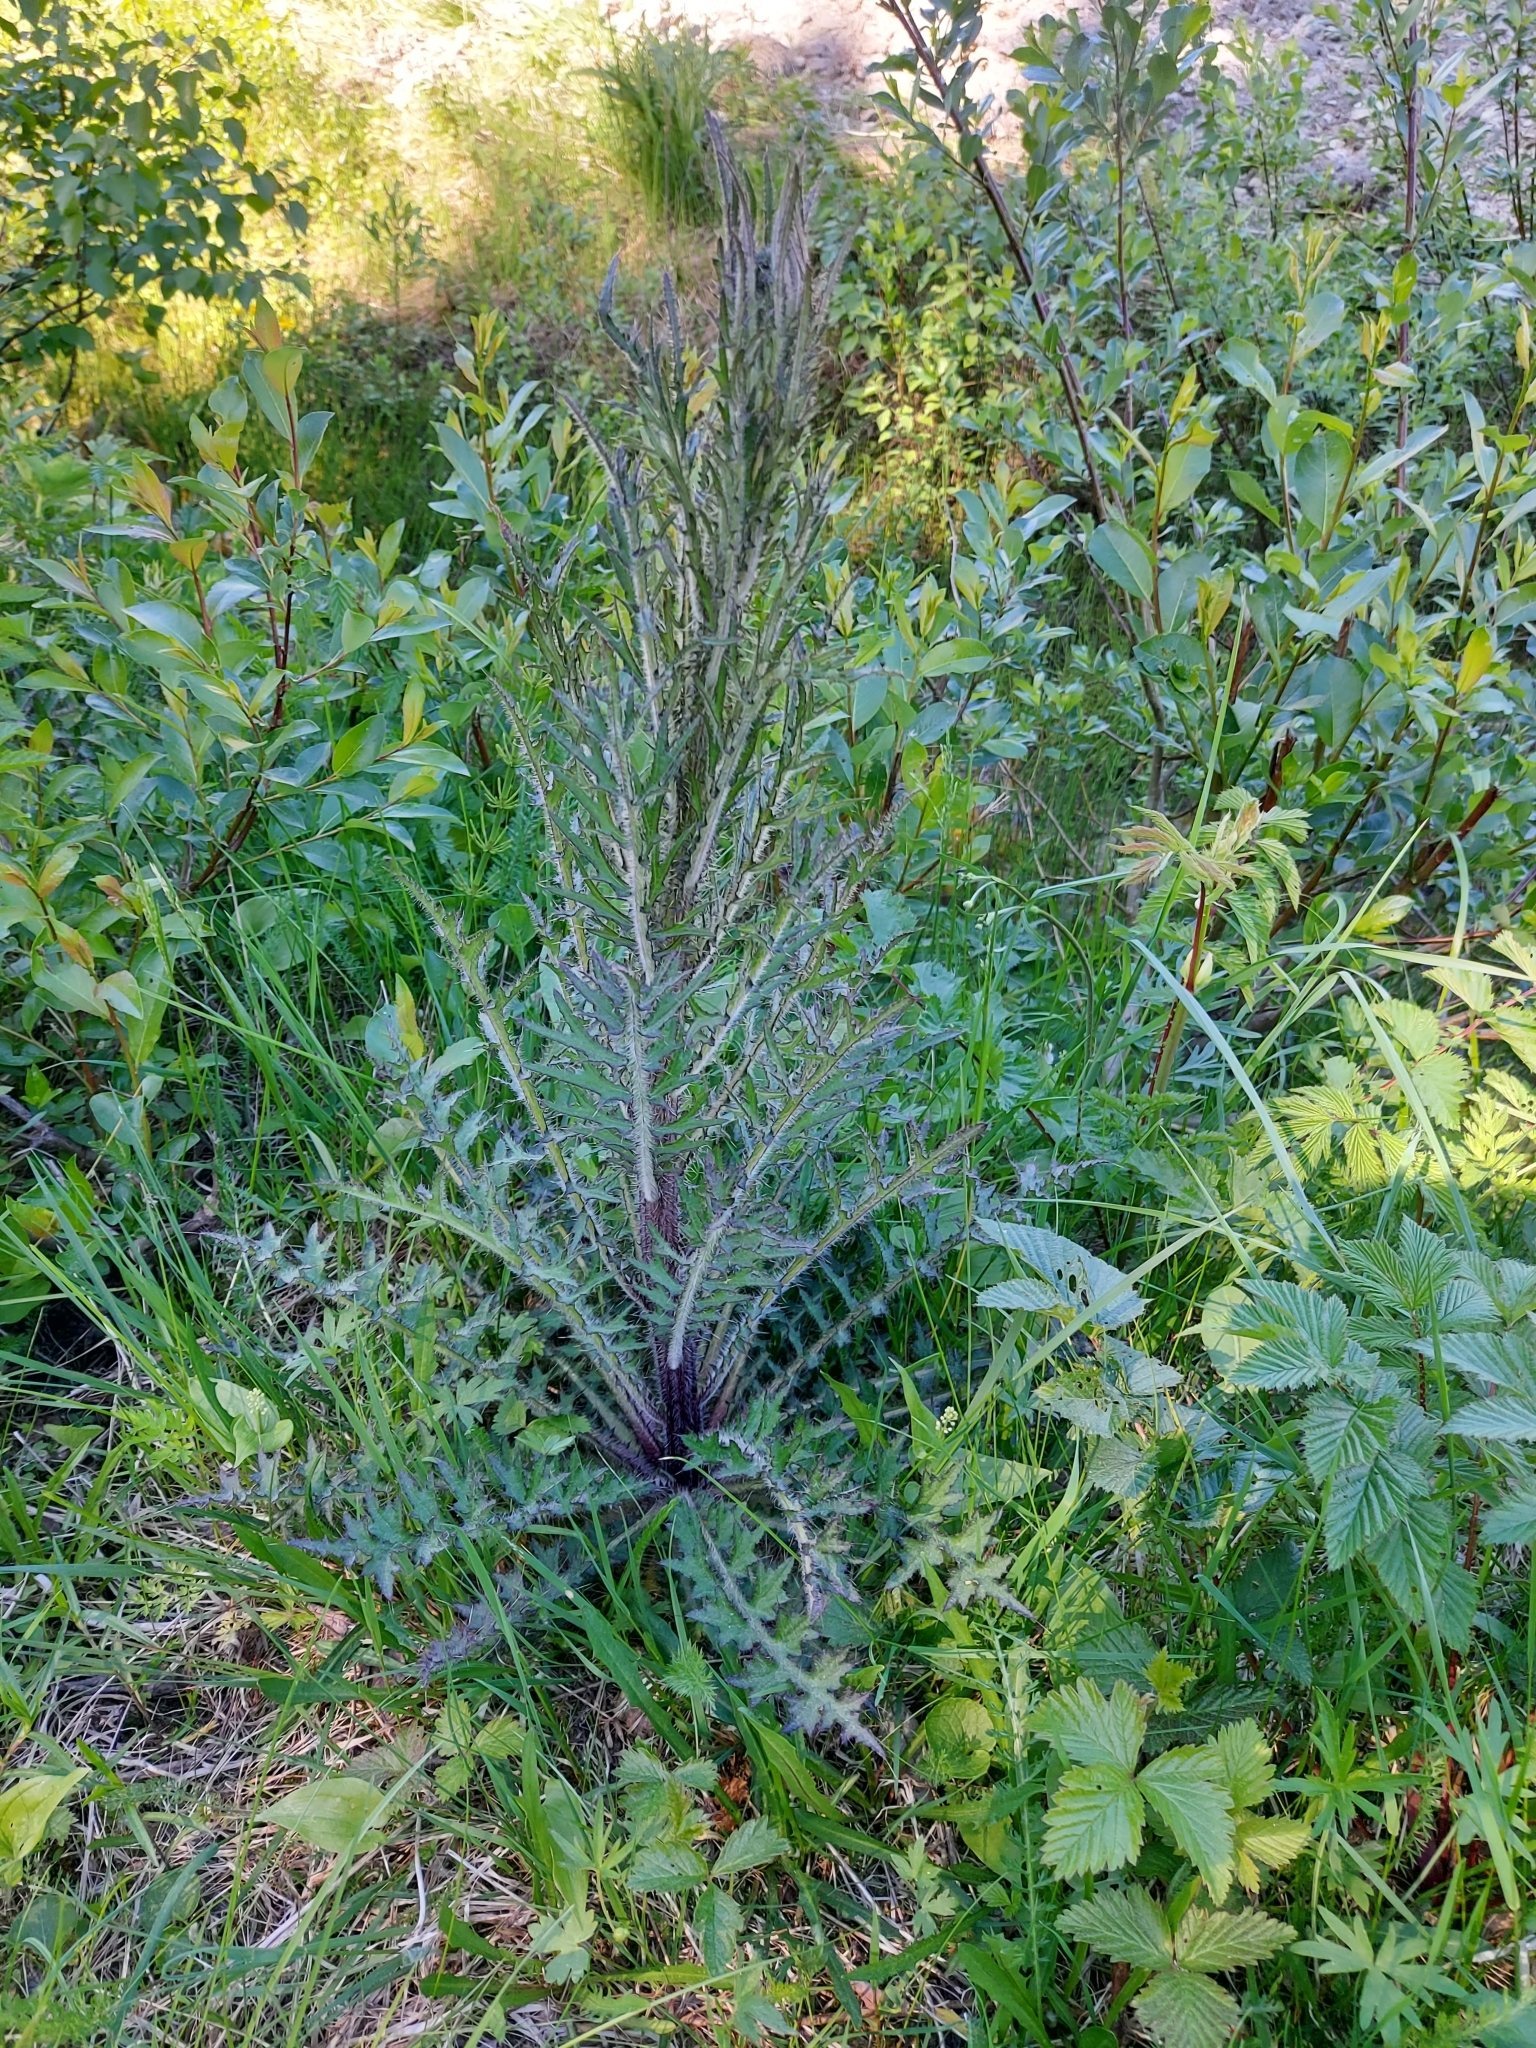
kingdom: Plantae
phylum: Tracheophyta
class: Magnoliopsida
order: Asterales
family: Asteraceae
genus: Cirsium
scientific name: Cirsium palustre
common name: Marsh thistle
